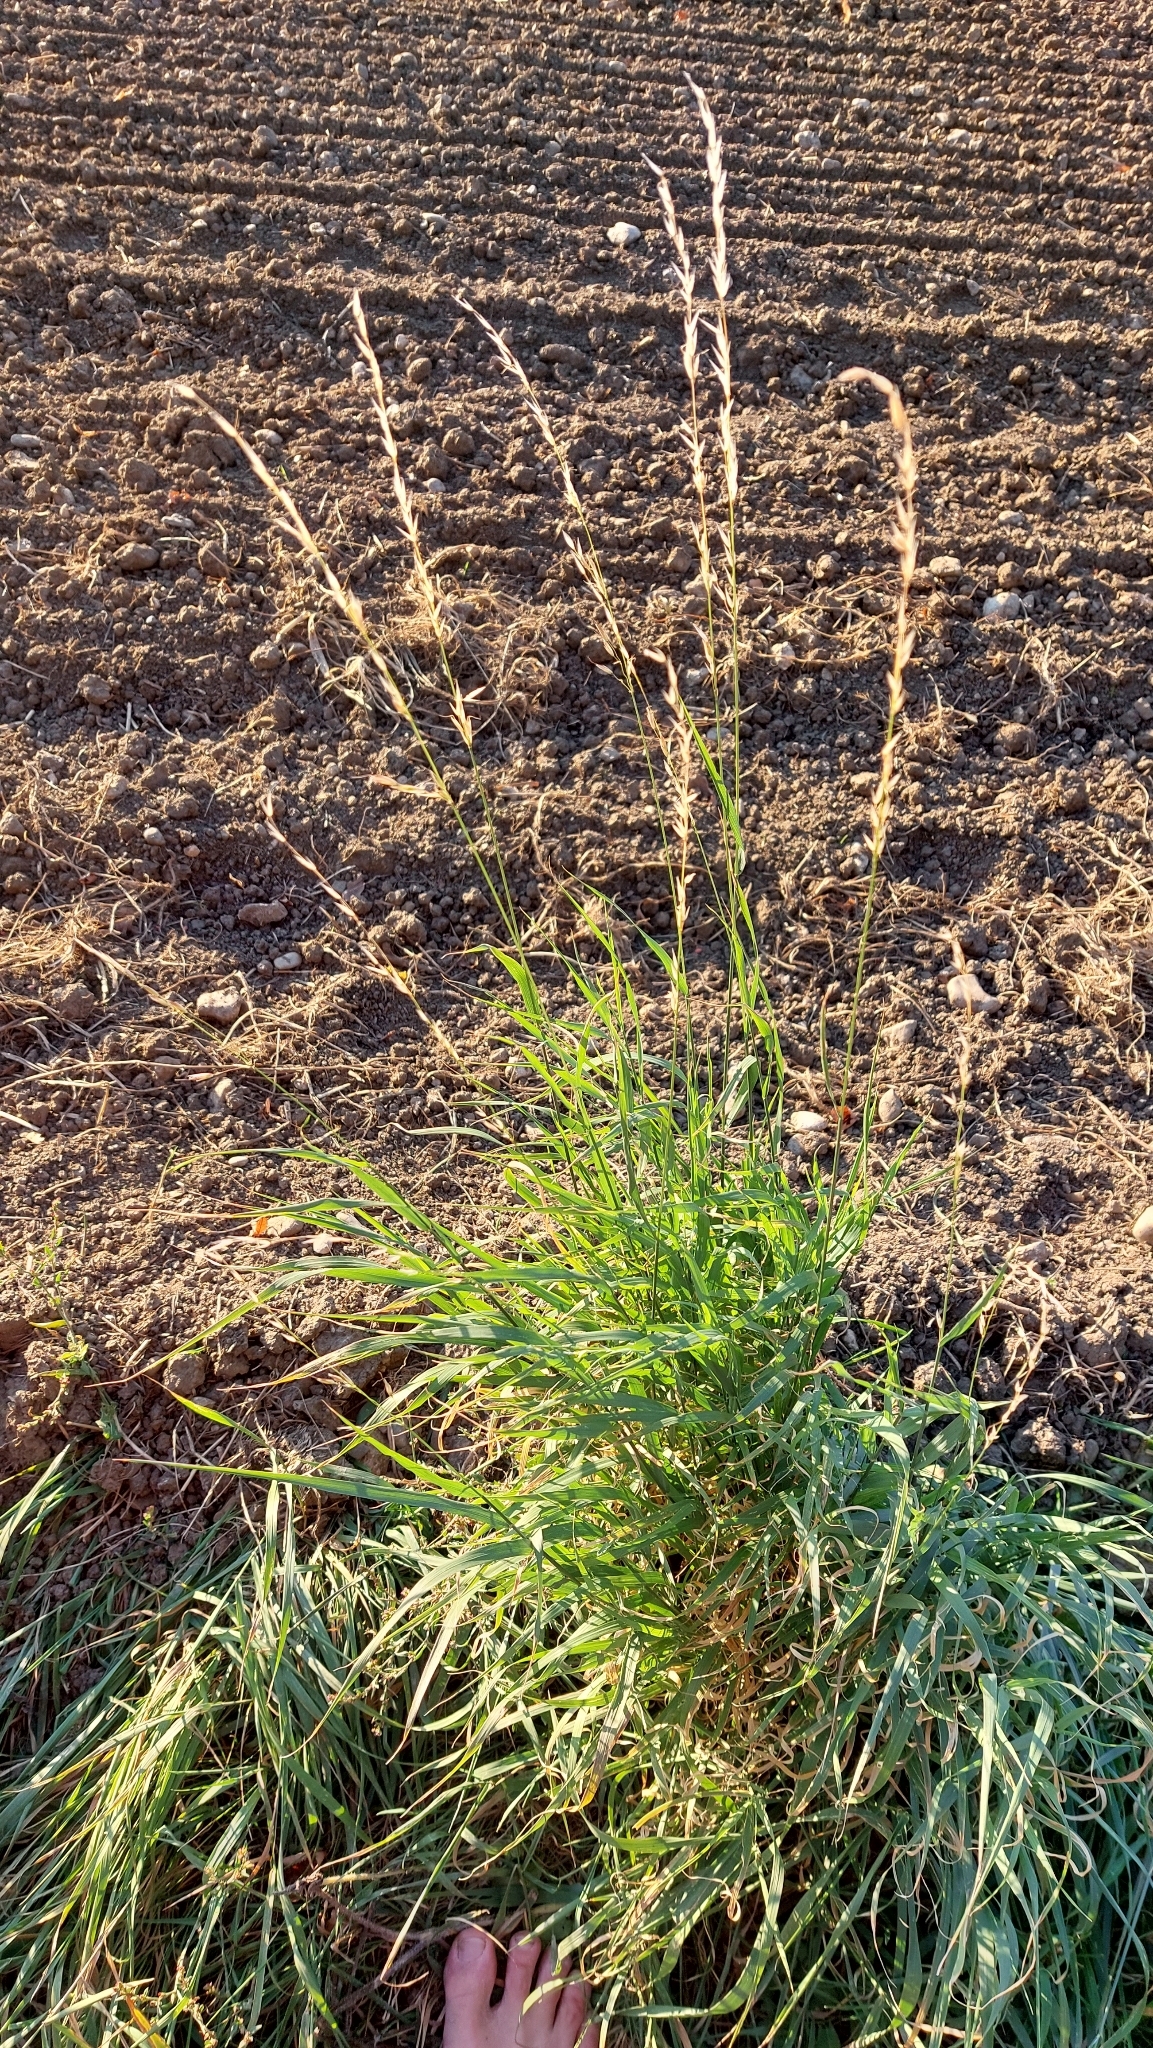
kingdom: Plantae
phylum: Tracheophyta
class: Liliopsida
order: Poales
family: Poaceae
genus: Arrhenatherum
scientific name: Arrhenatherum elatius
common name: Tall oatgrass
